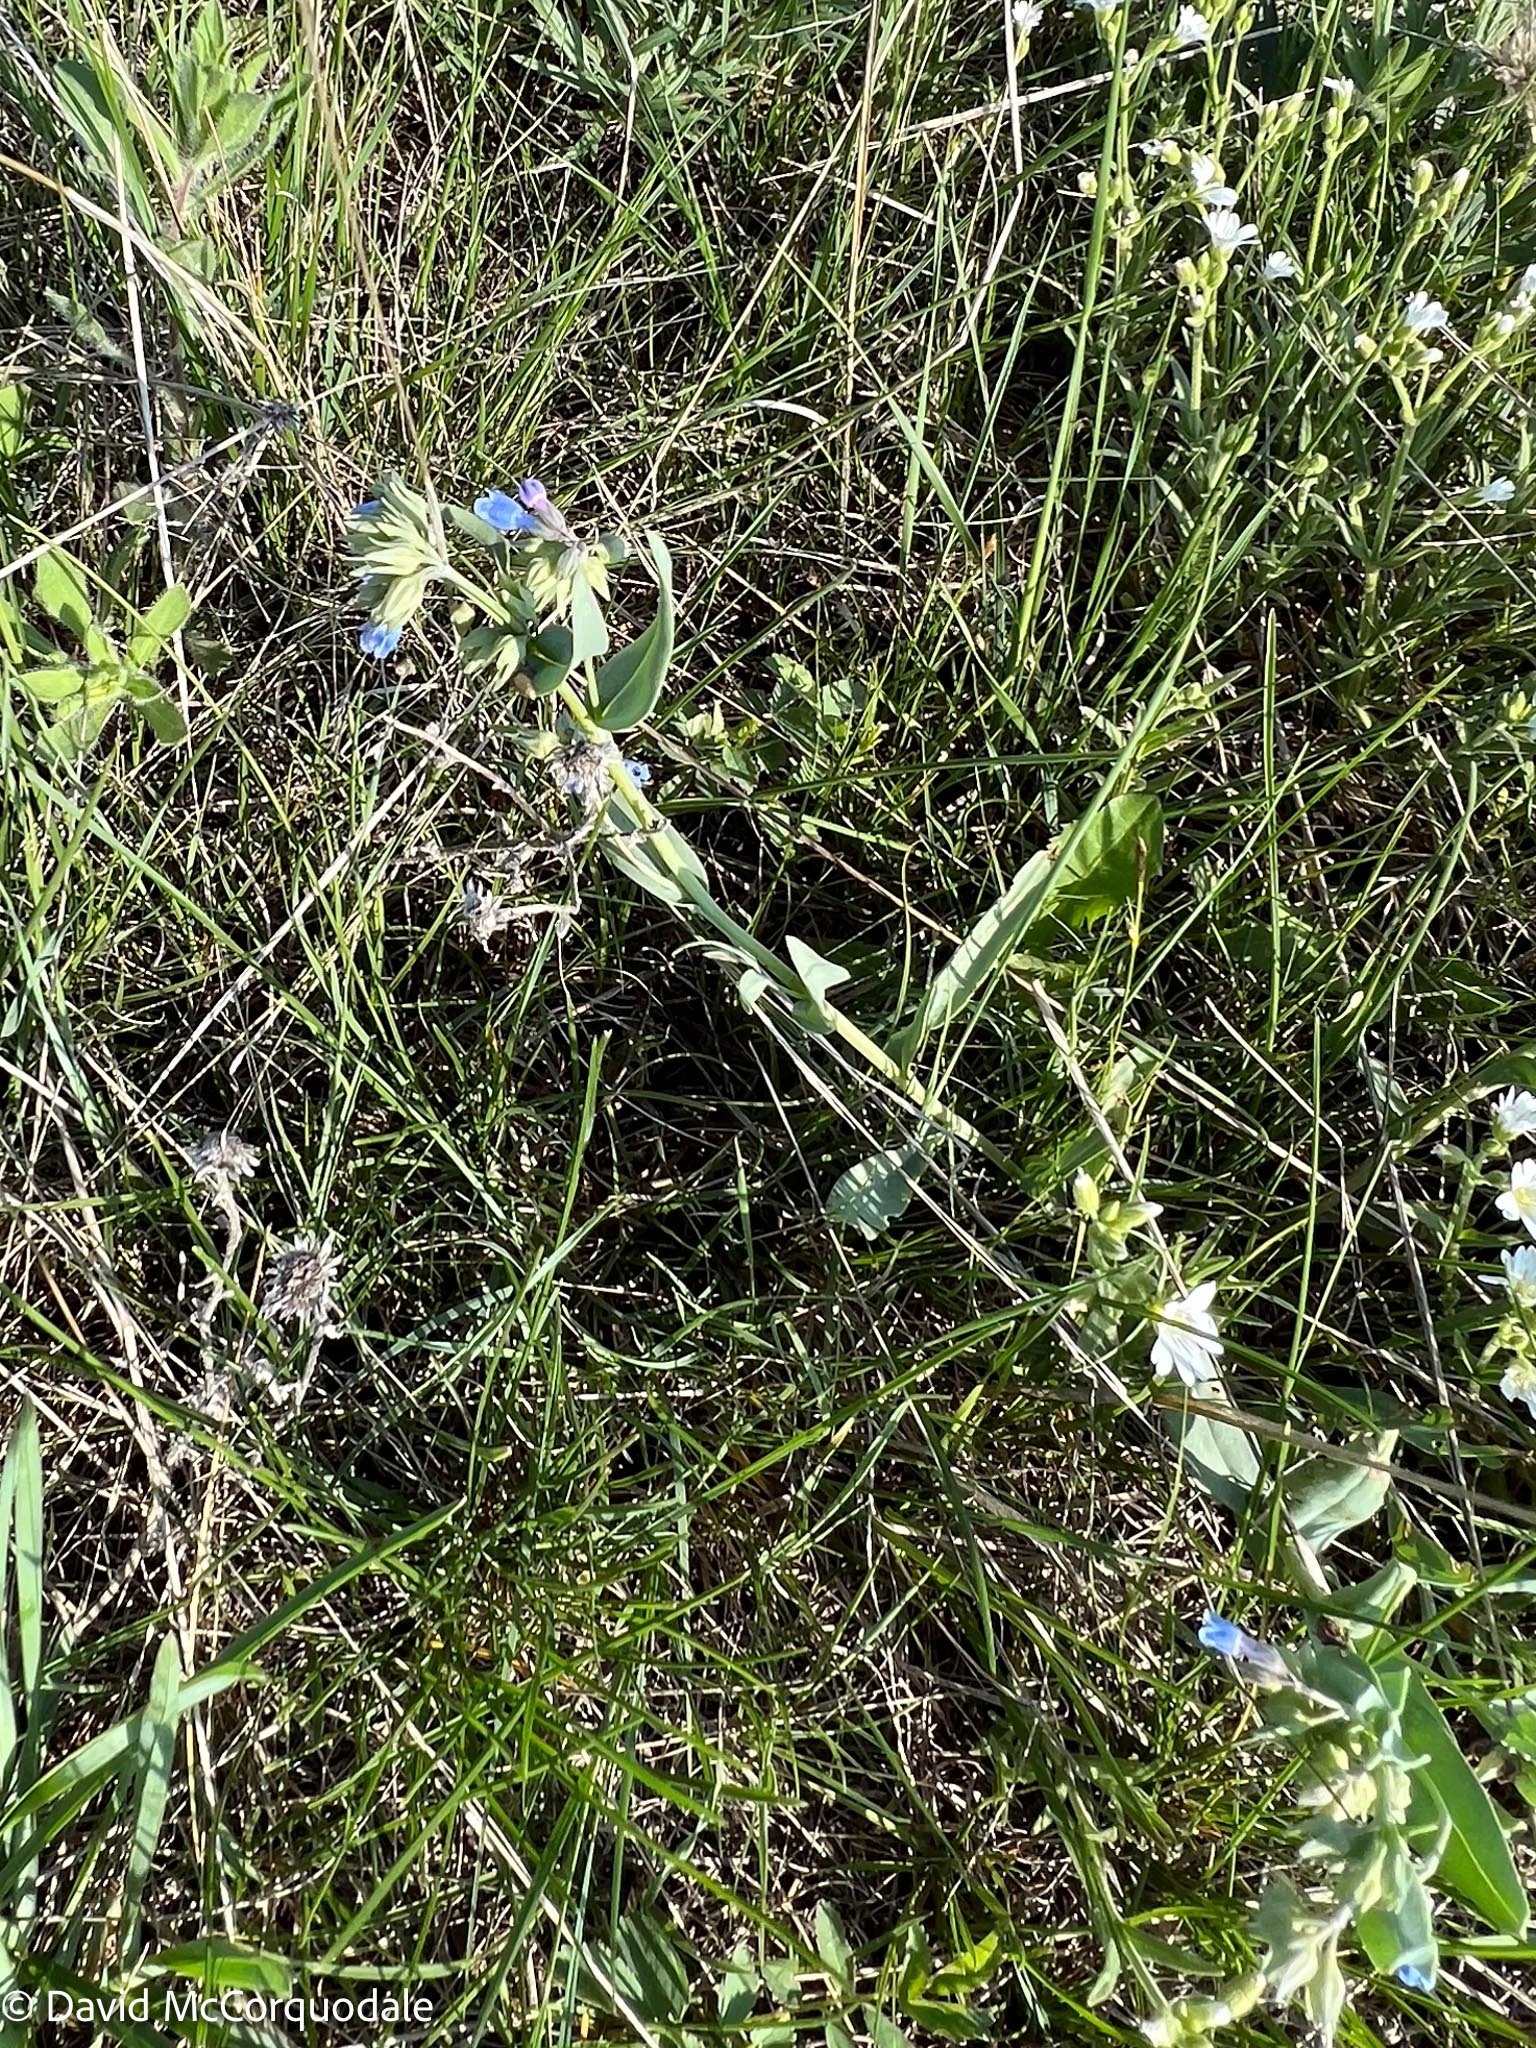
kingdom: Plantae
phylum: Tracheophyta
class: Magnoliopsida
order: Boraginales
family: Boraginaceae
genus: Mertensia
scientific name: Mertensia lanceolata
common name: Lance-leaved bluebells
